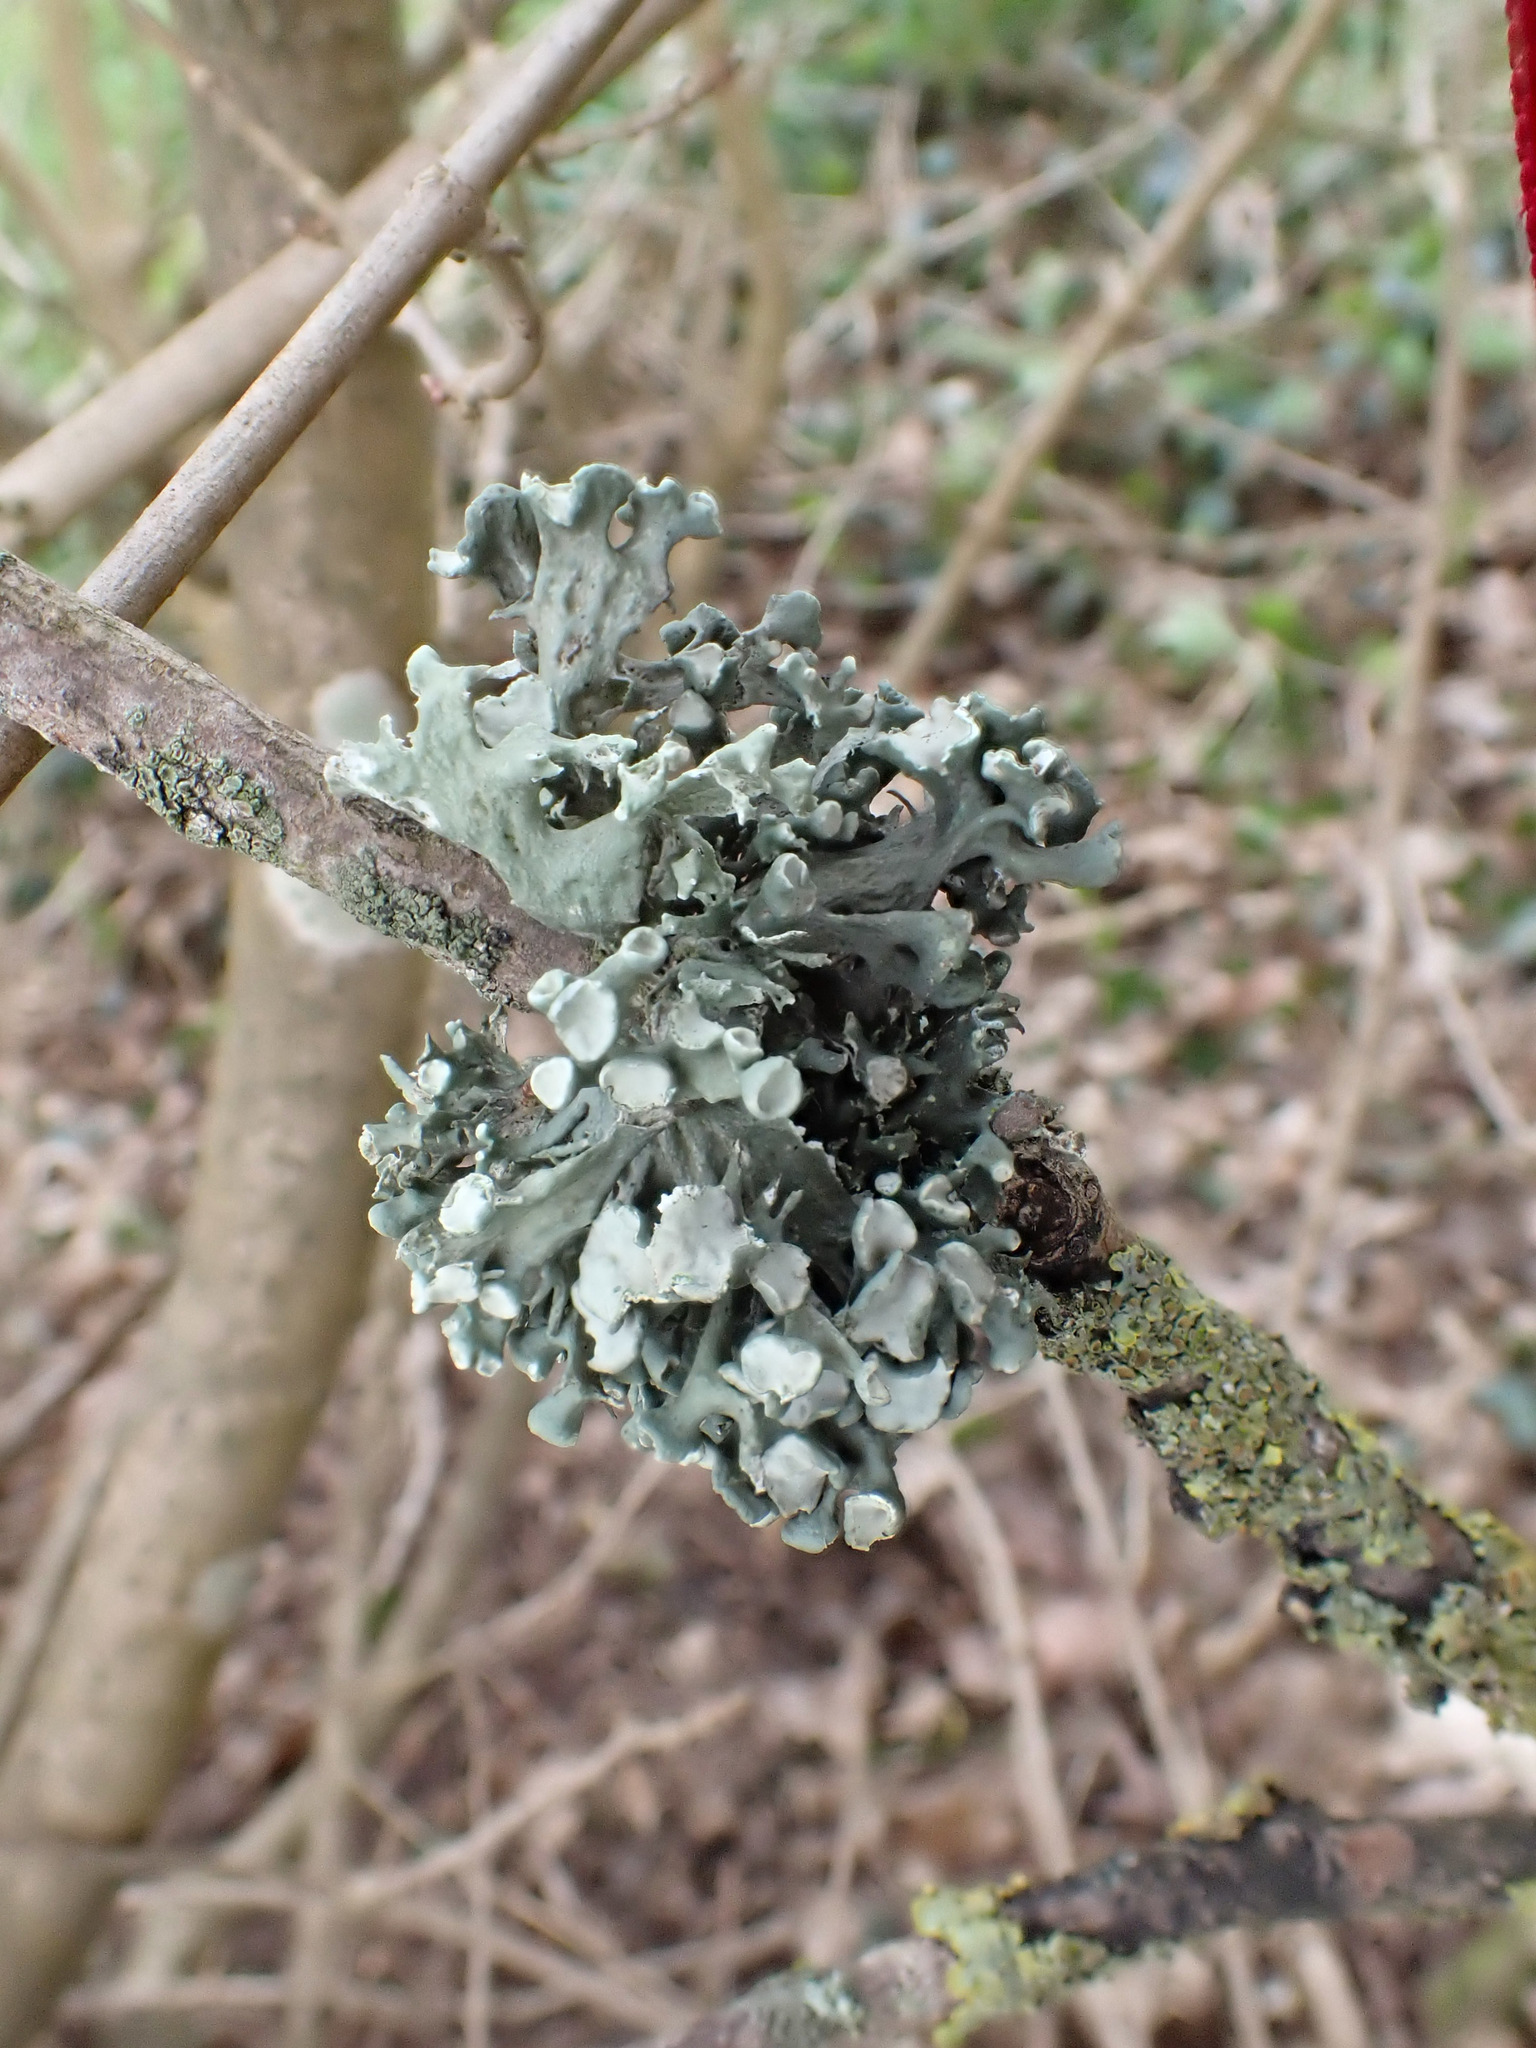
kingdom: Fungi
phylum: Ascomycota
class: Lecanoromycetes
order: Lecanorales
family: Ramalinaceae
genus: Ramalina
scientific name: Ramalina fastigiata
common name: Dotted ribbon lichen
